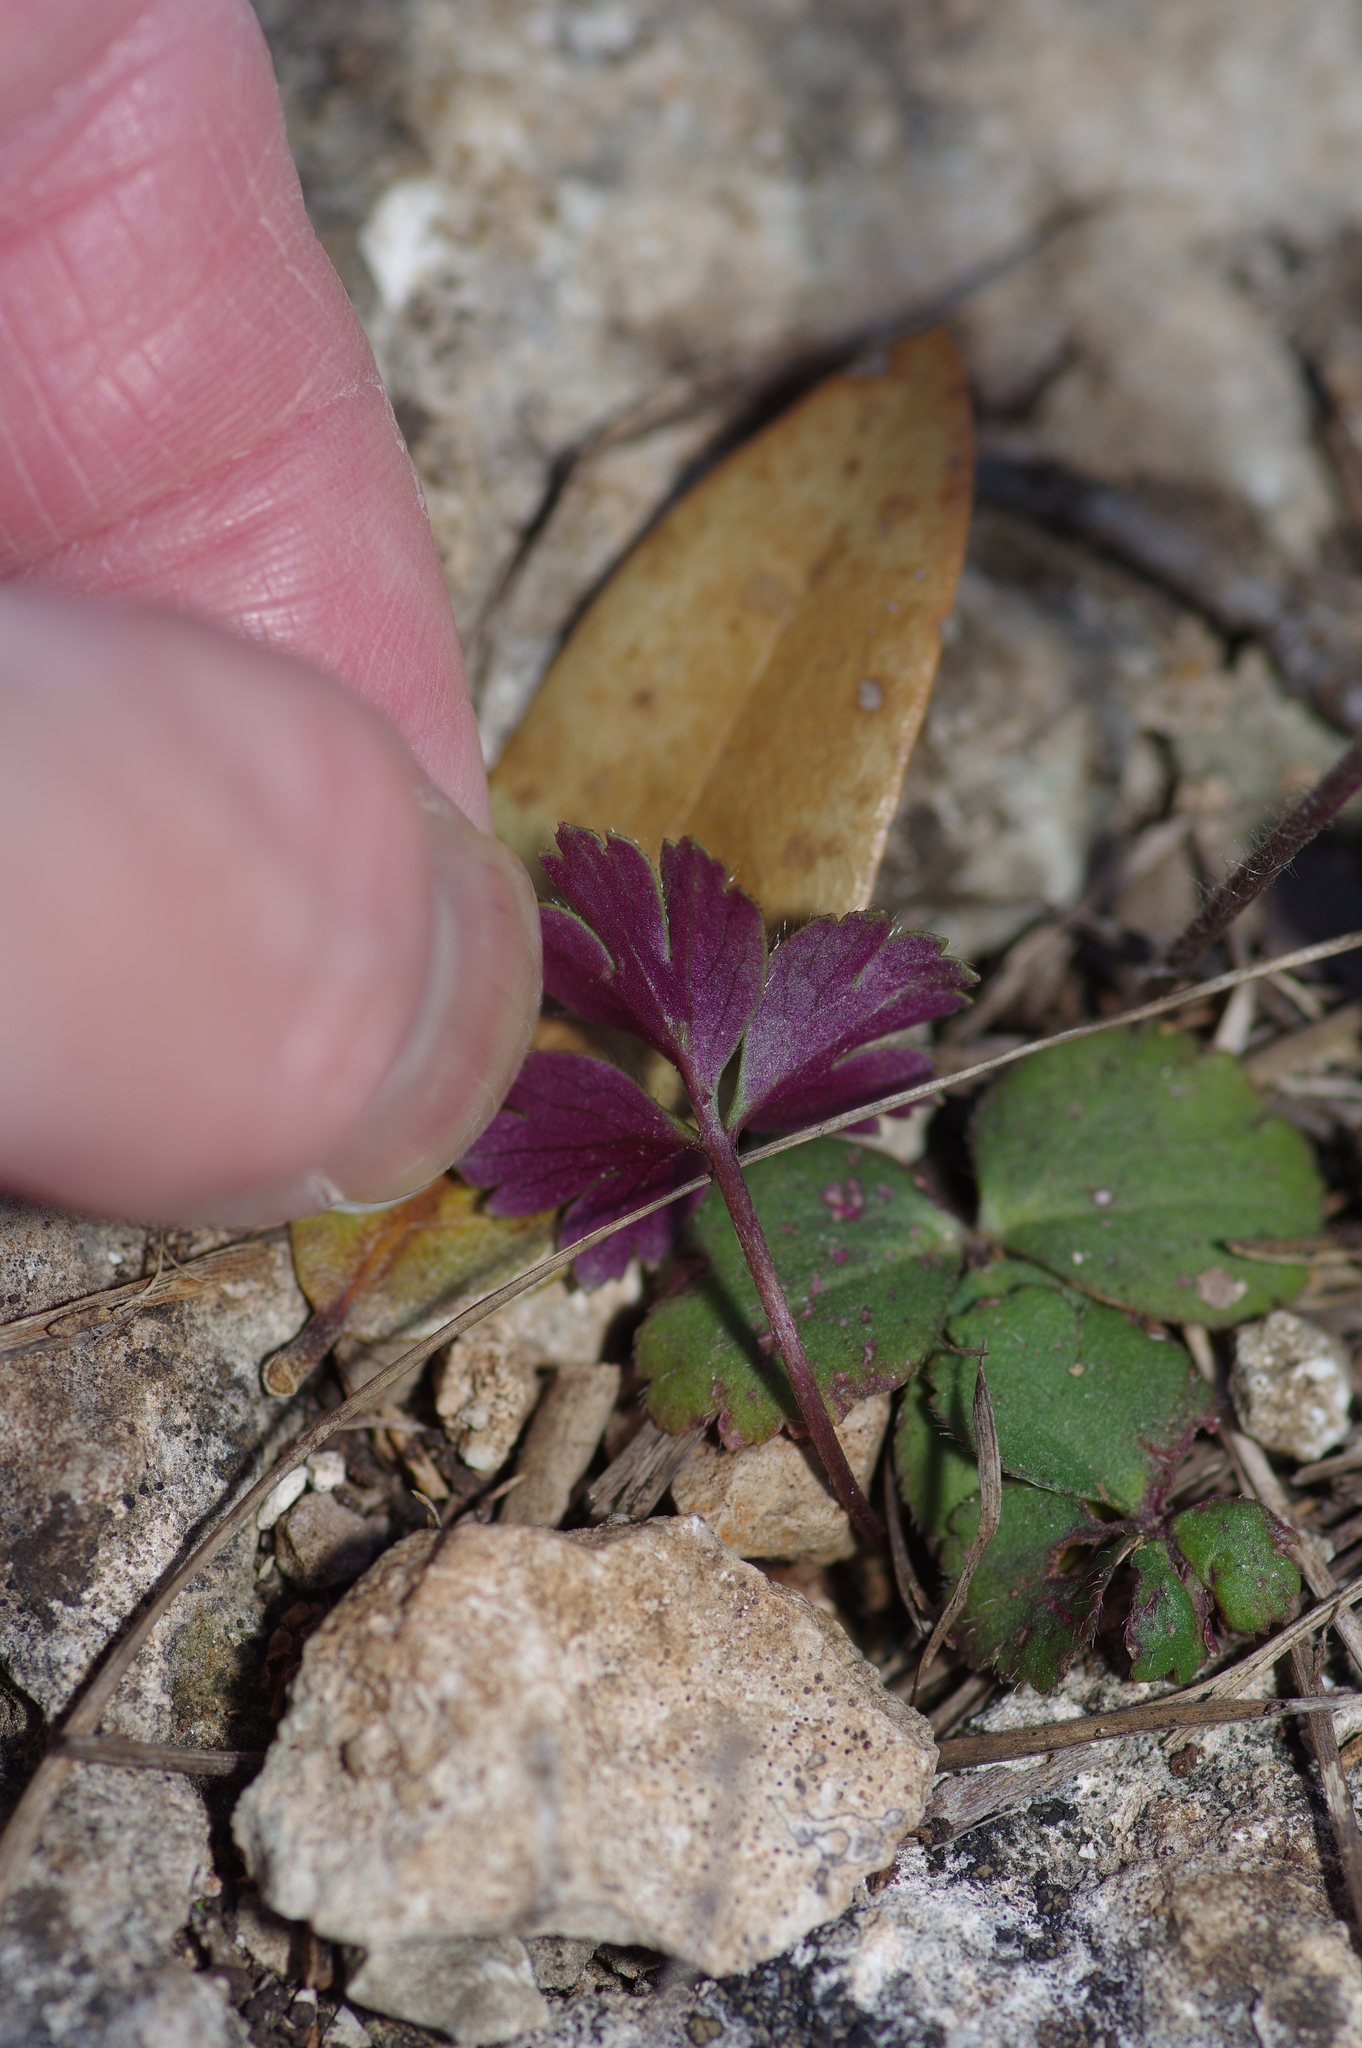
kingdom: Plantae
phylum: Tracheophyta
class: Magnoliopsida
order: Ranunculales
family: Ranunculaceae
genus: Anemone
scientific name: Anemone berlandieri
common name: Ten-petal anemone
